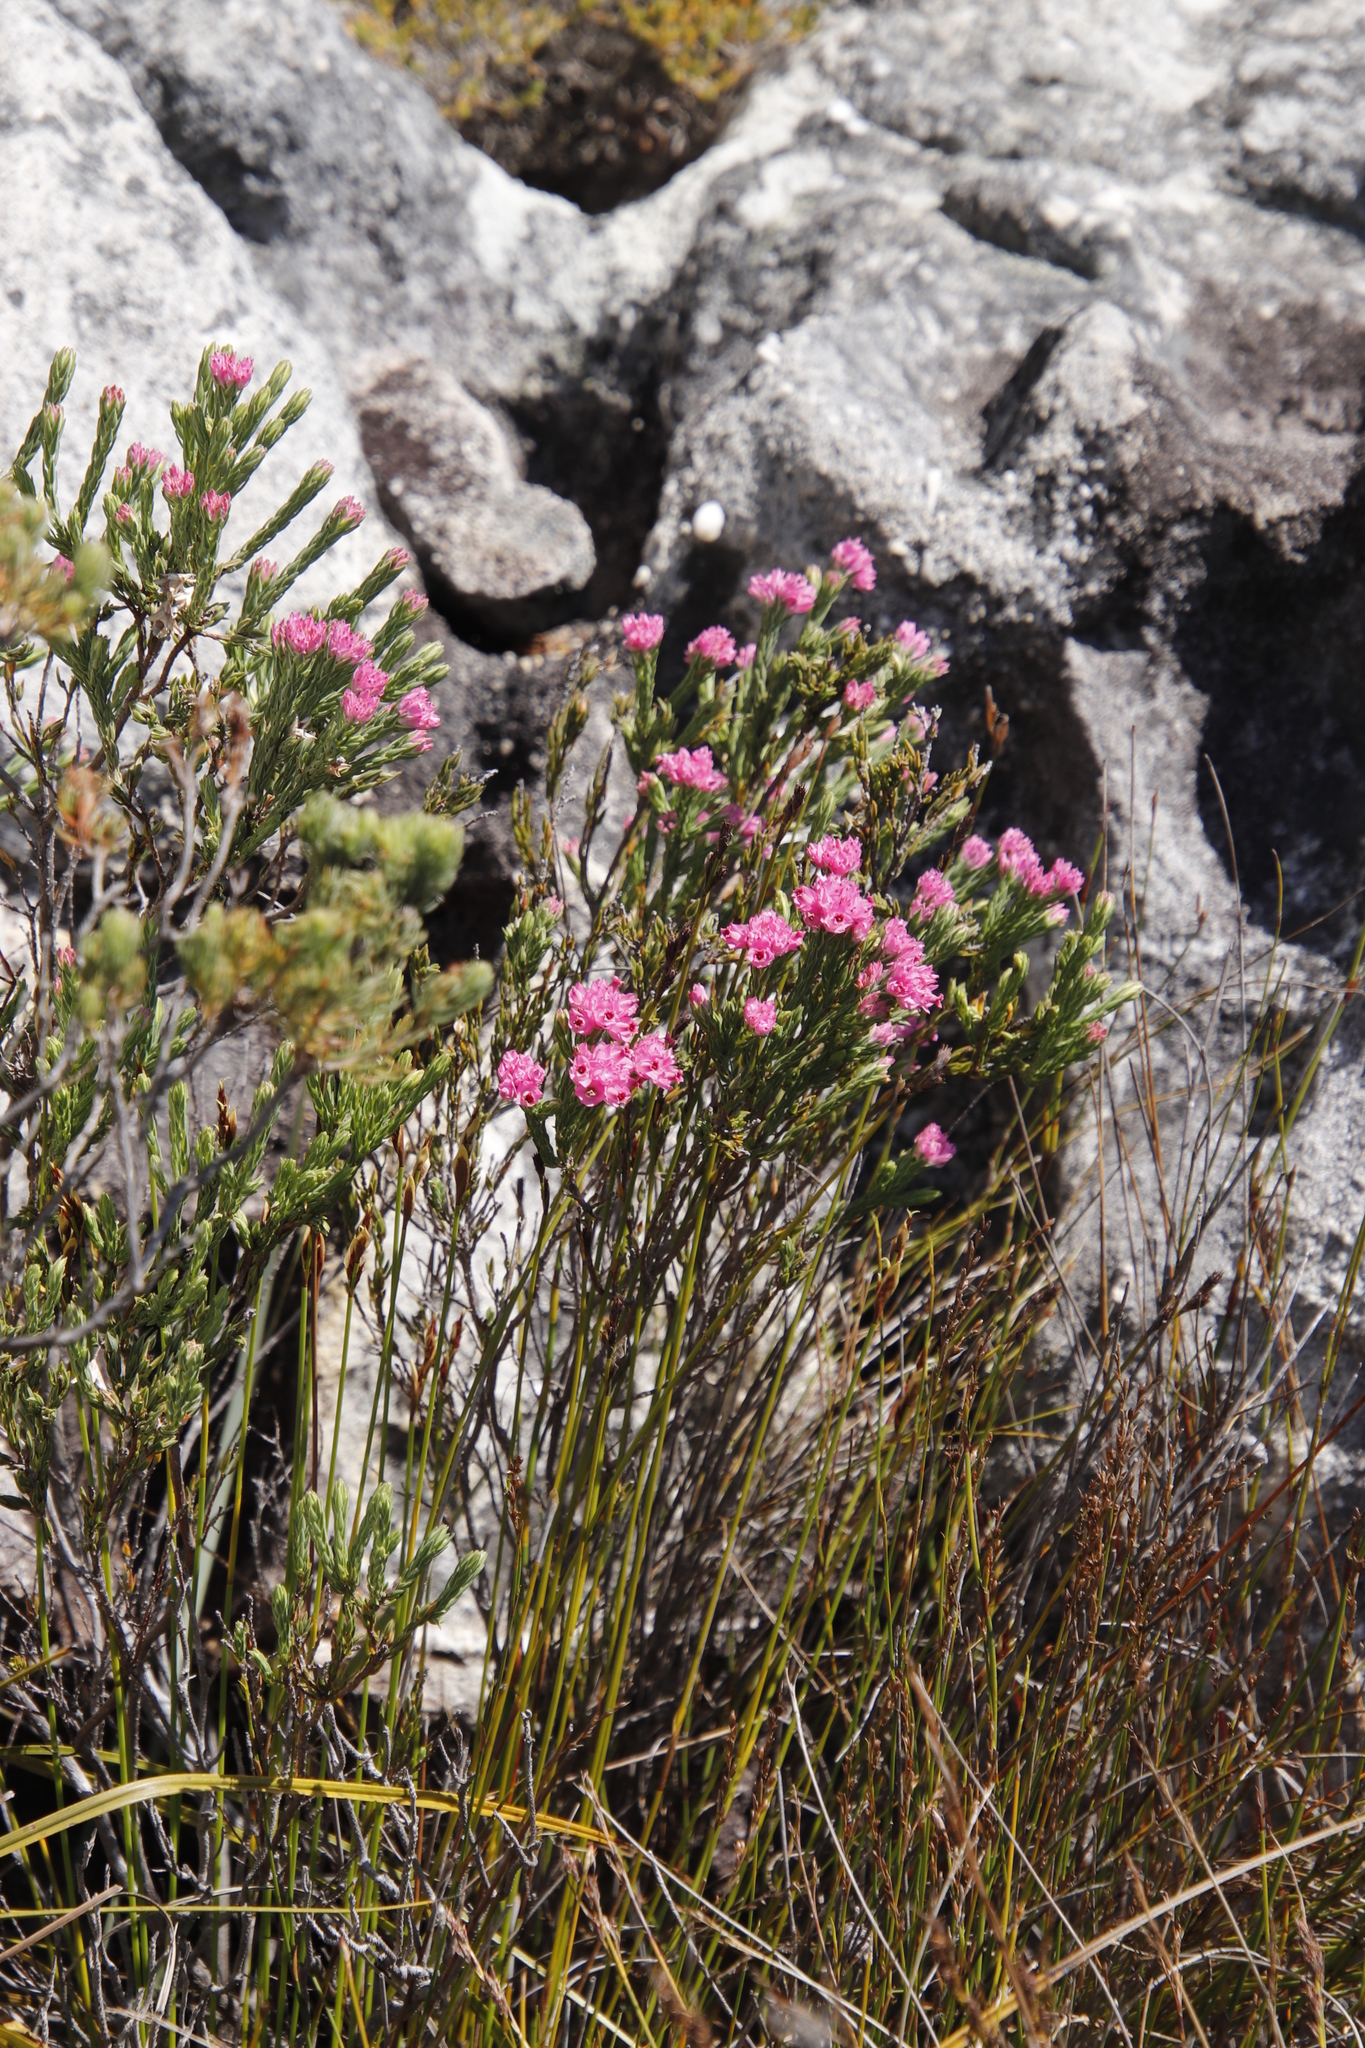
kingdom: Plantae
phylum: Tracheophyta
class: Magnoliopsida
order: Ericales
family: Ericaceae
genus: Erica
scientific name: Erica corifolia
